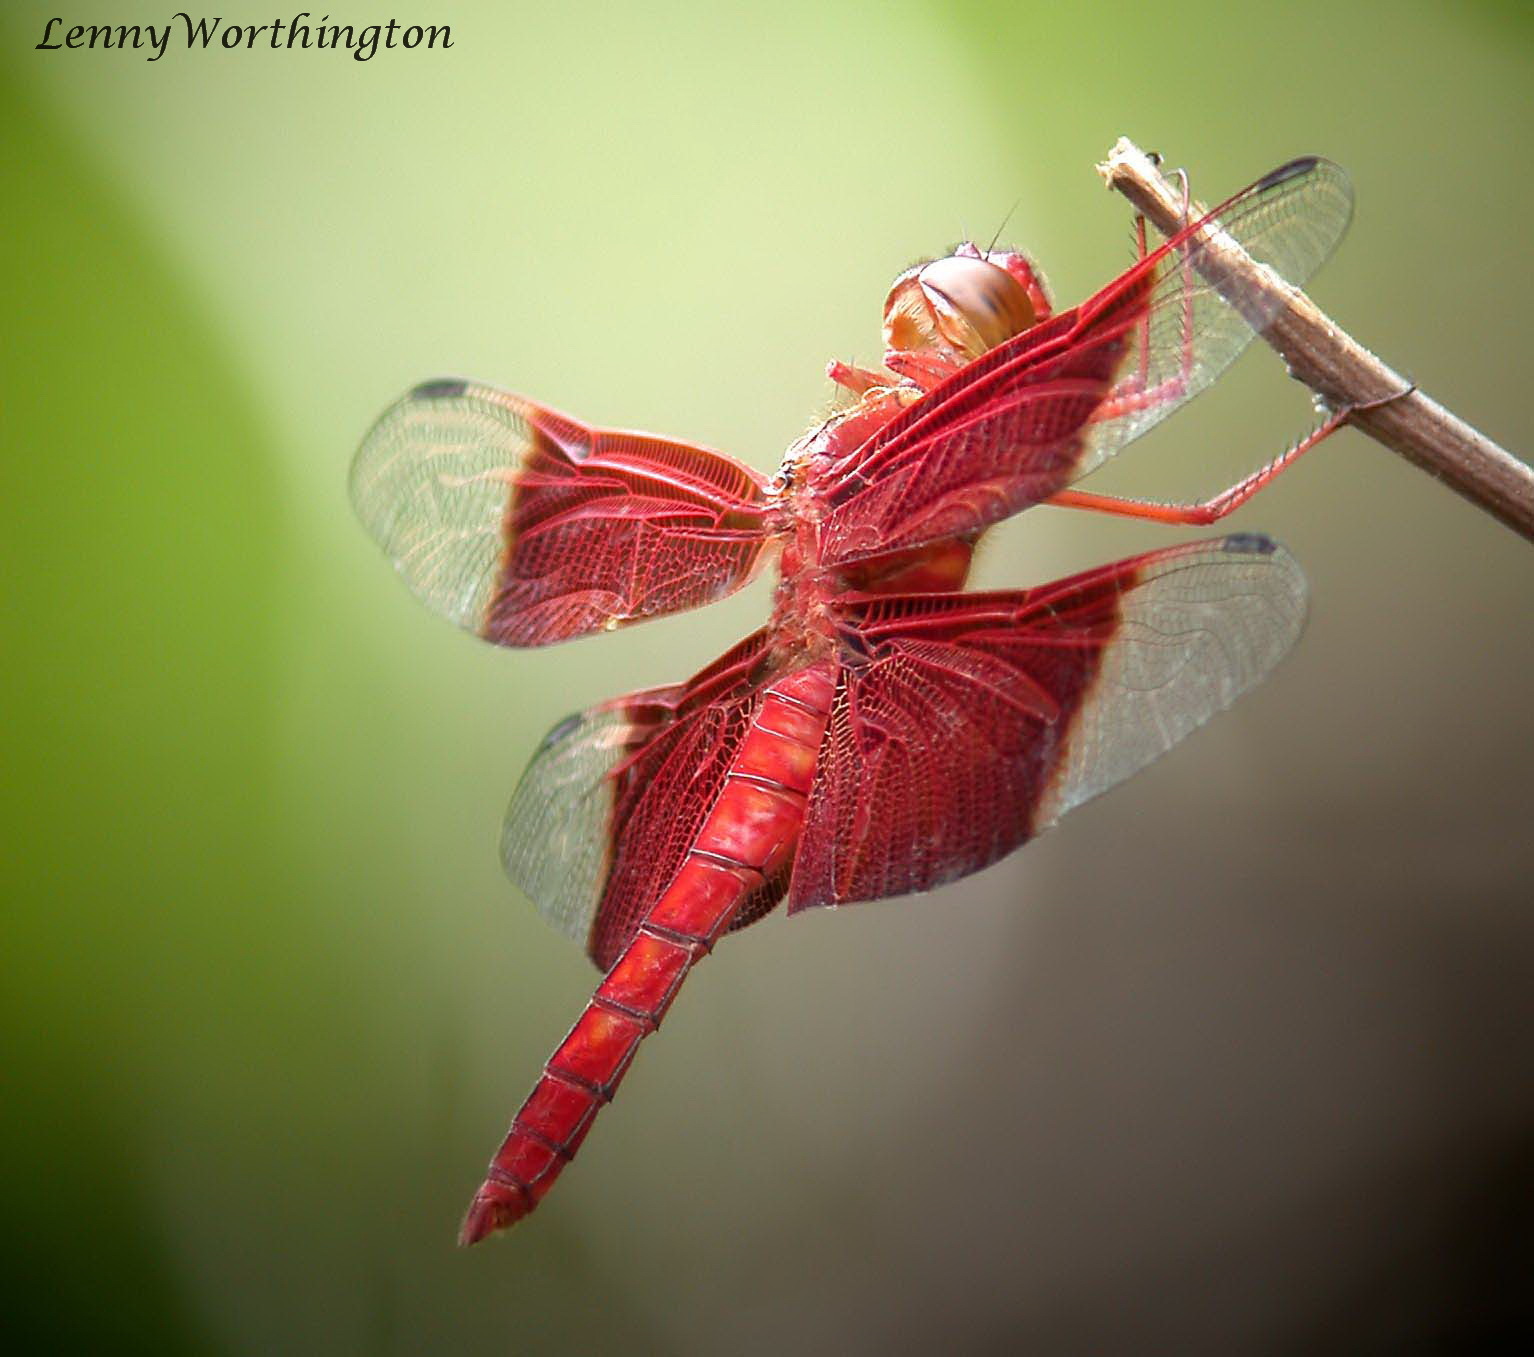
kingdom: Animalia
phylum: Arthropoda
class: Insecta
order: Odonata
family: Libellulidae
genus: Camacinia
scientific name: Camacinia gigantea
